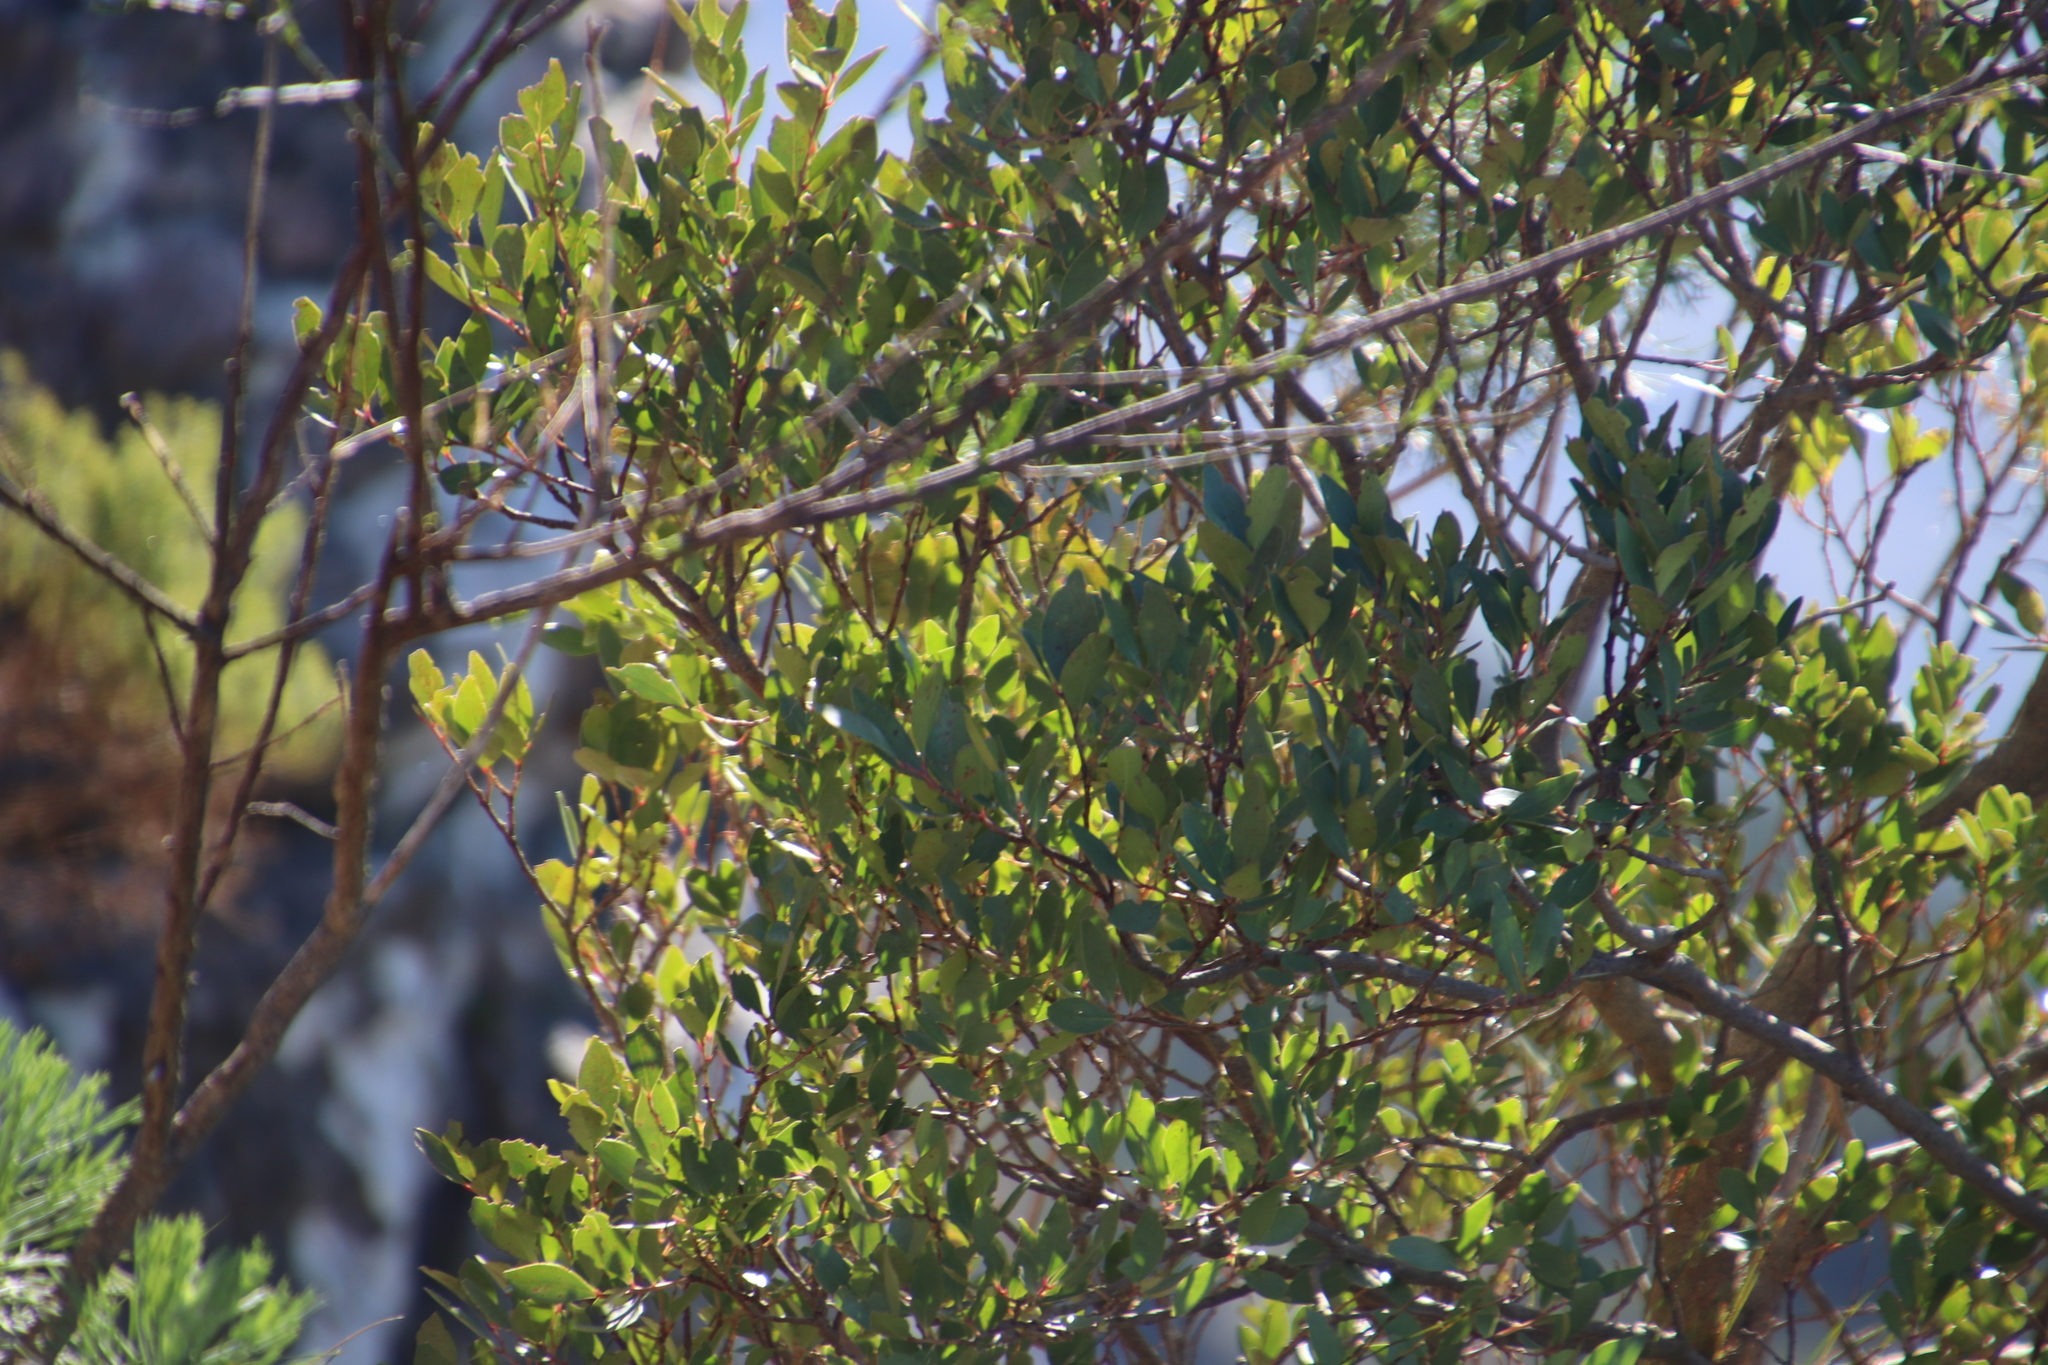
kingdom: Plantae
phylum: Tracheophyta
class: Magnoliopsida
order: Celastrales
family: Celastraceae
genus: Gymnosporia
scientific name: Gymnosporia laurina
